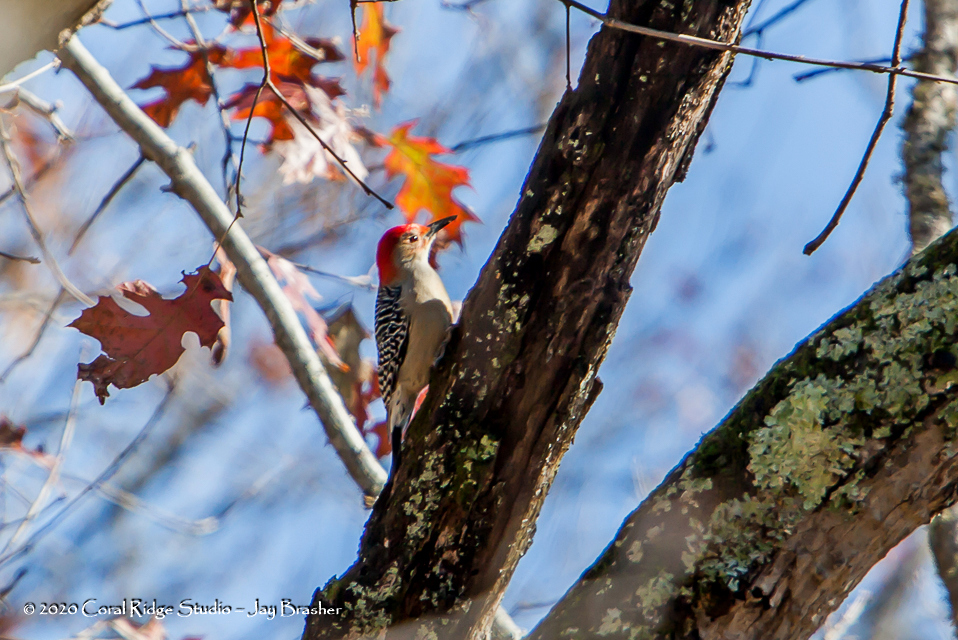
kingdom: Animalia
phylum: Chordata
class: Aves
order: Piciformes
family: Picidae
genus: Melanerpes
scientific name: Melanerpes carolinus
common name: Red-bellied woodpecker
